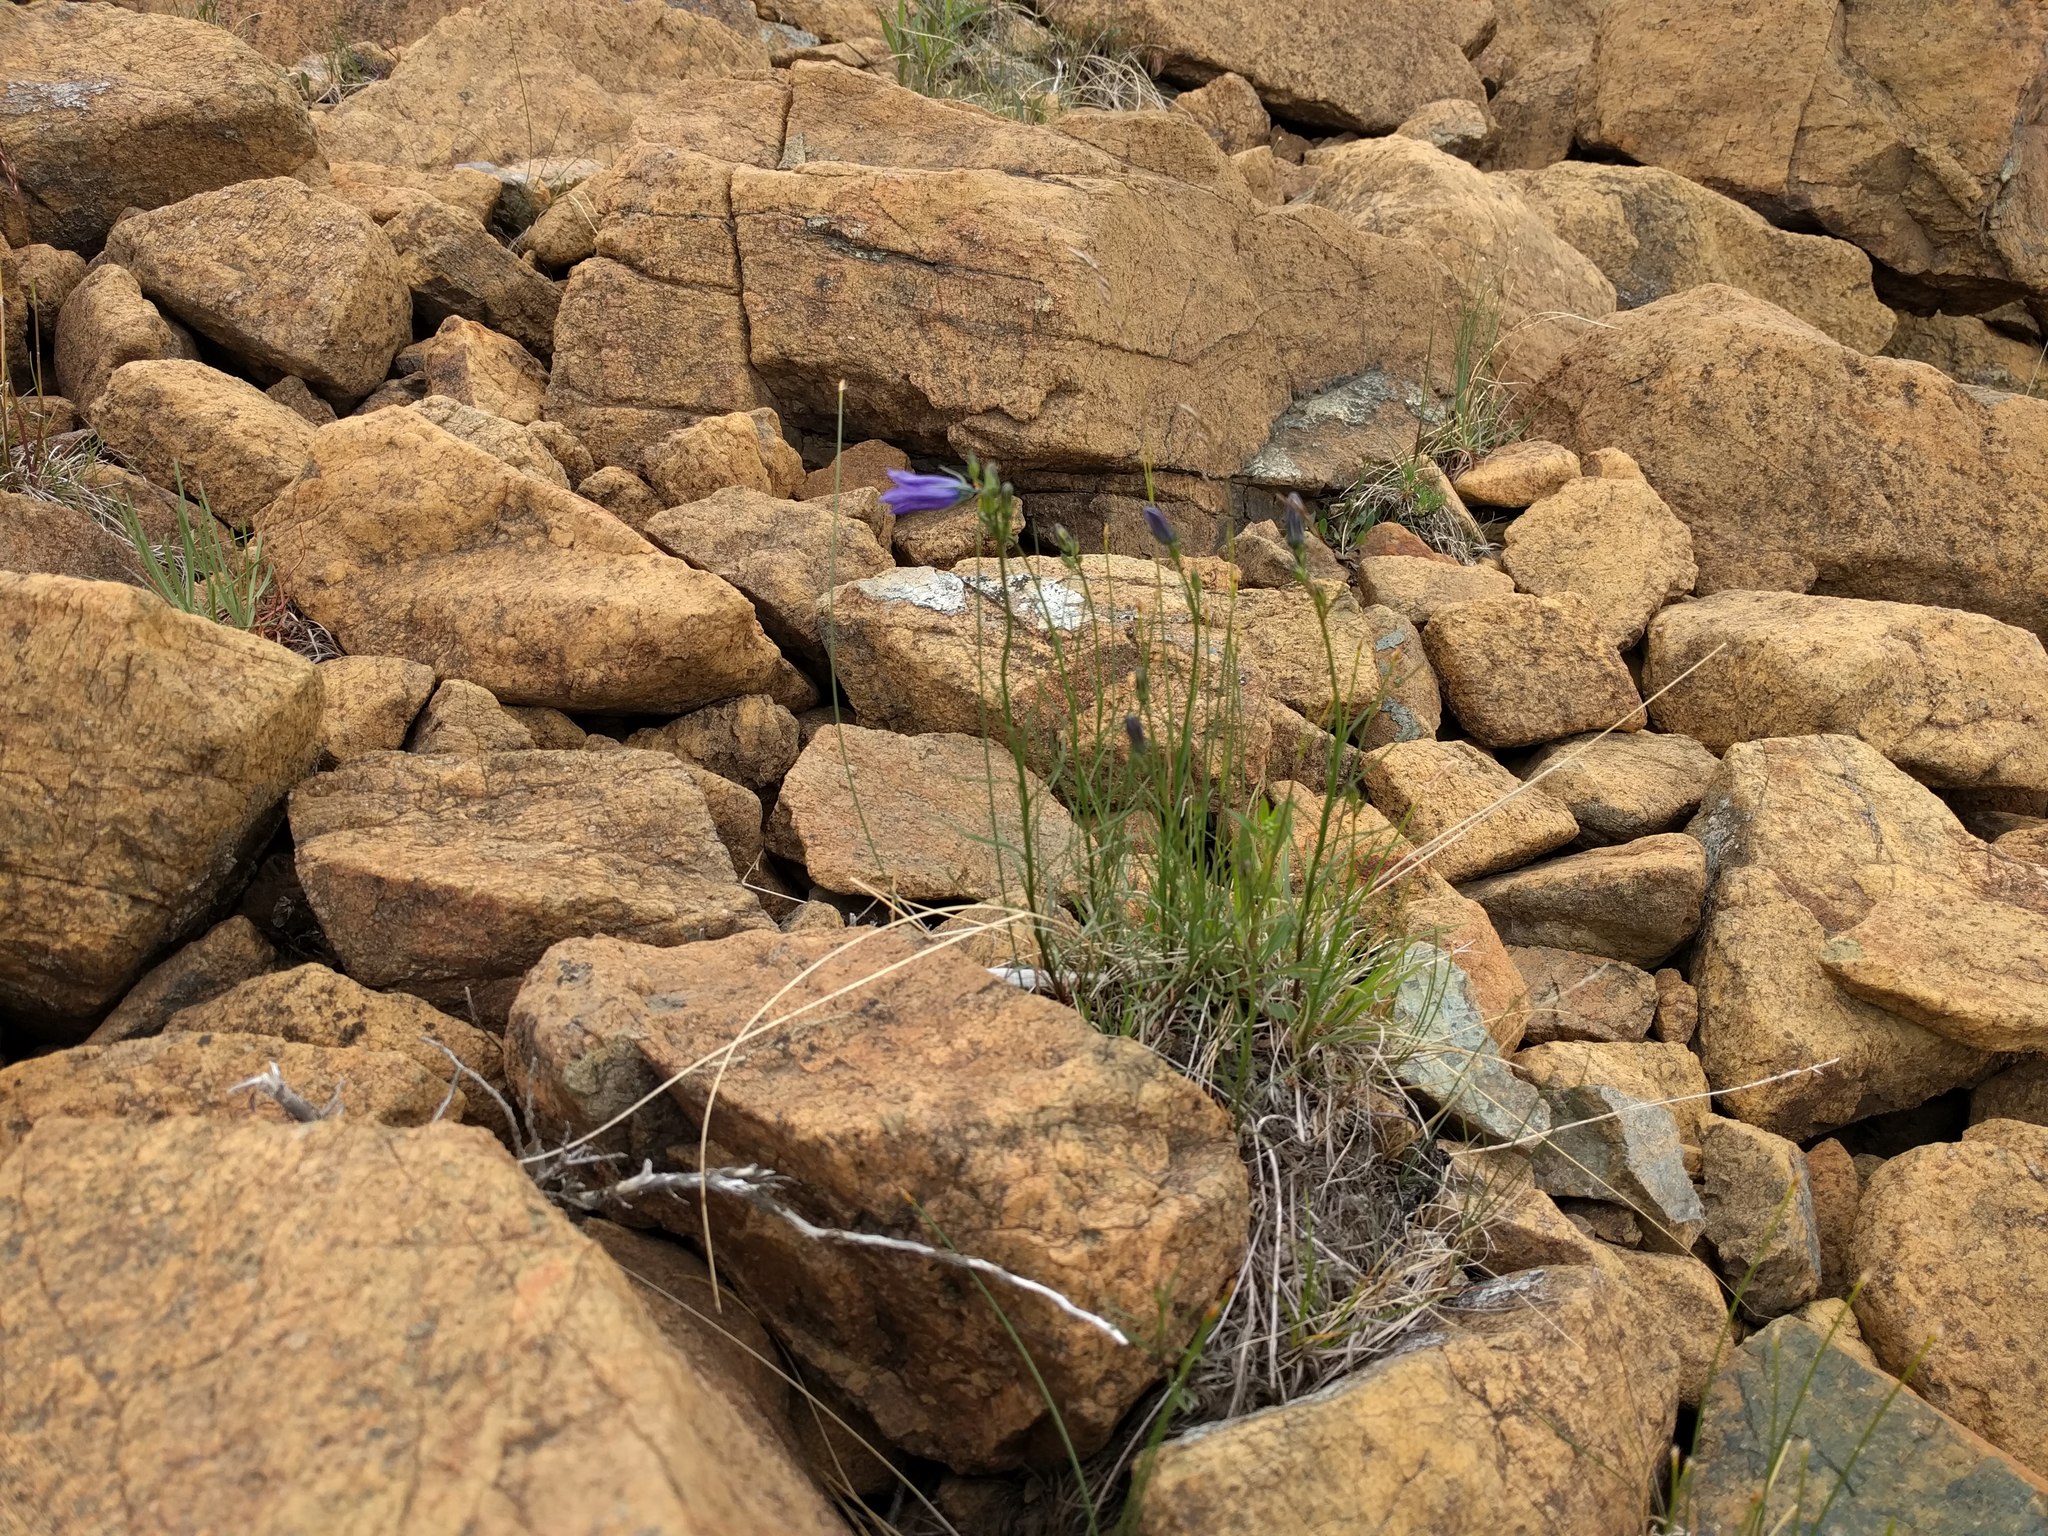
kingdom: Plantae
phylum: Tracheophyta
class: Magnoliopsida
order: Asterales
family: Campanulaceae
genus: Campanula
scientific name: Campanula giesekiana
